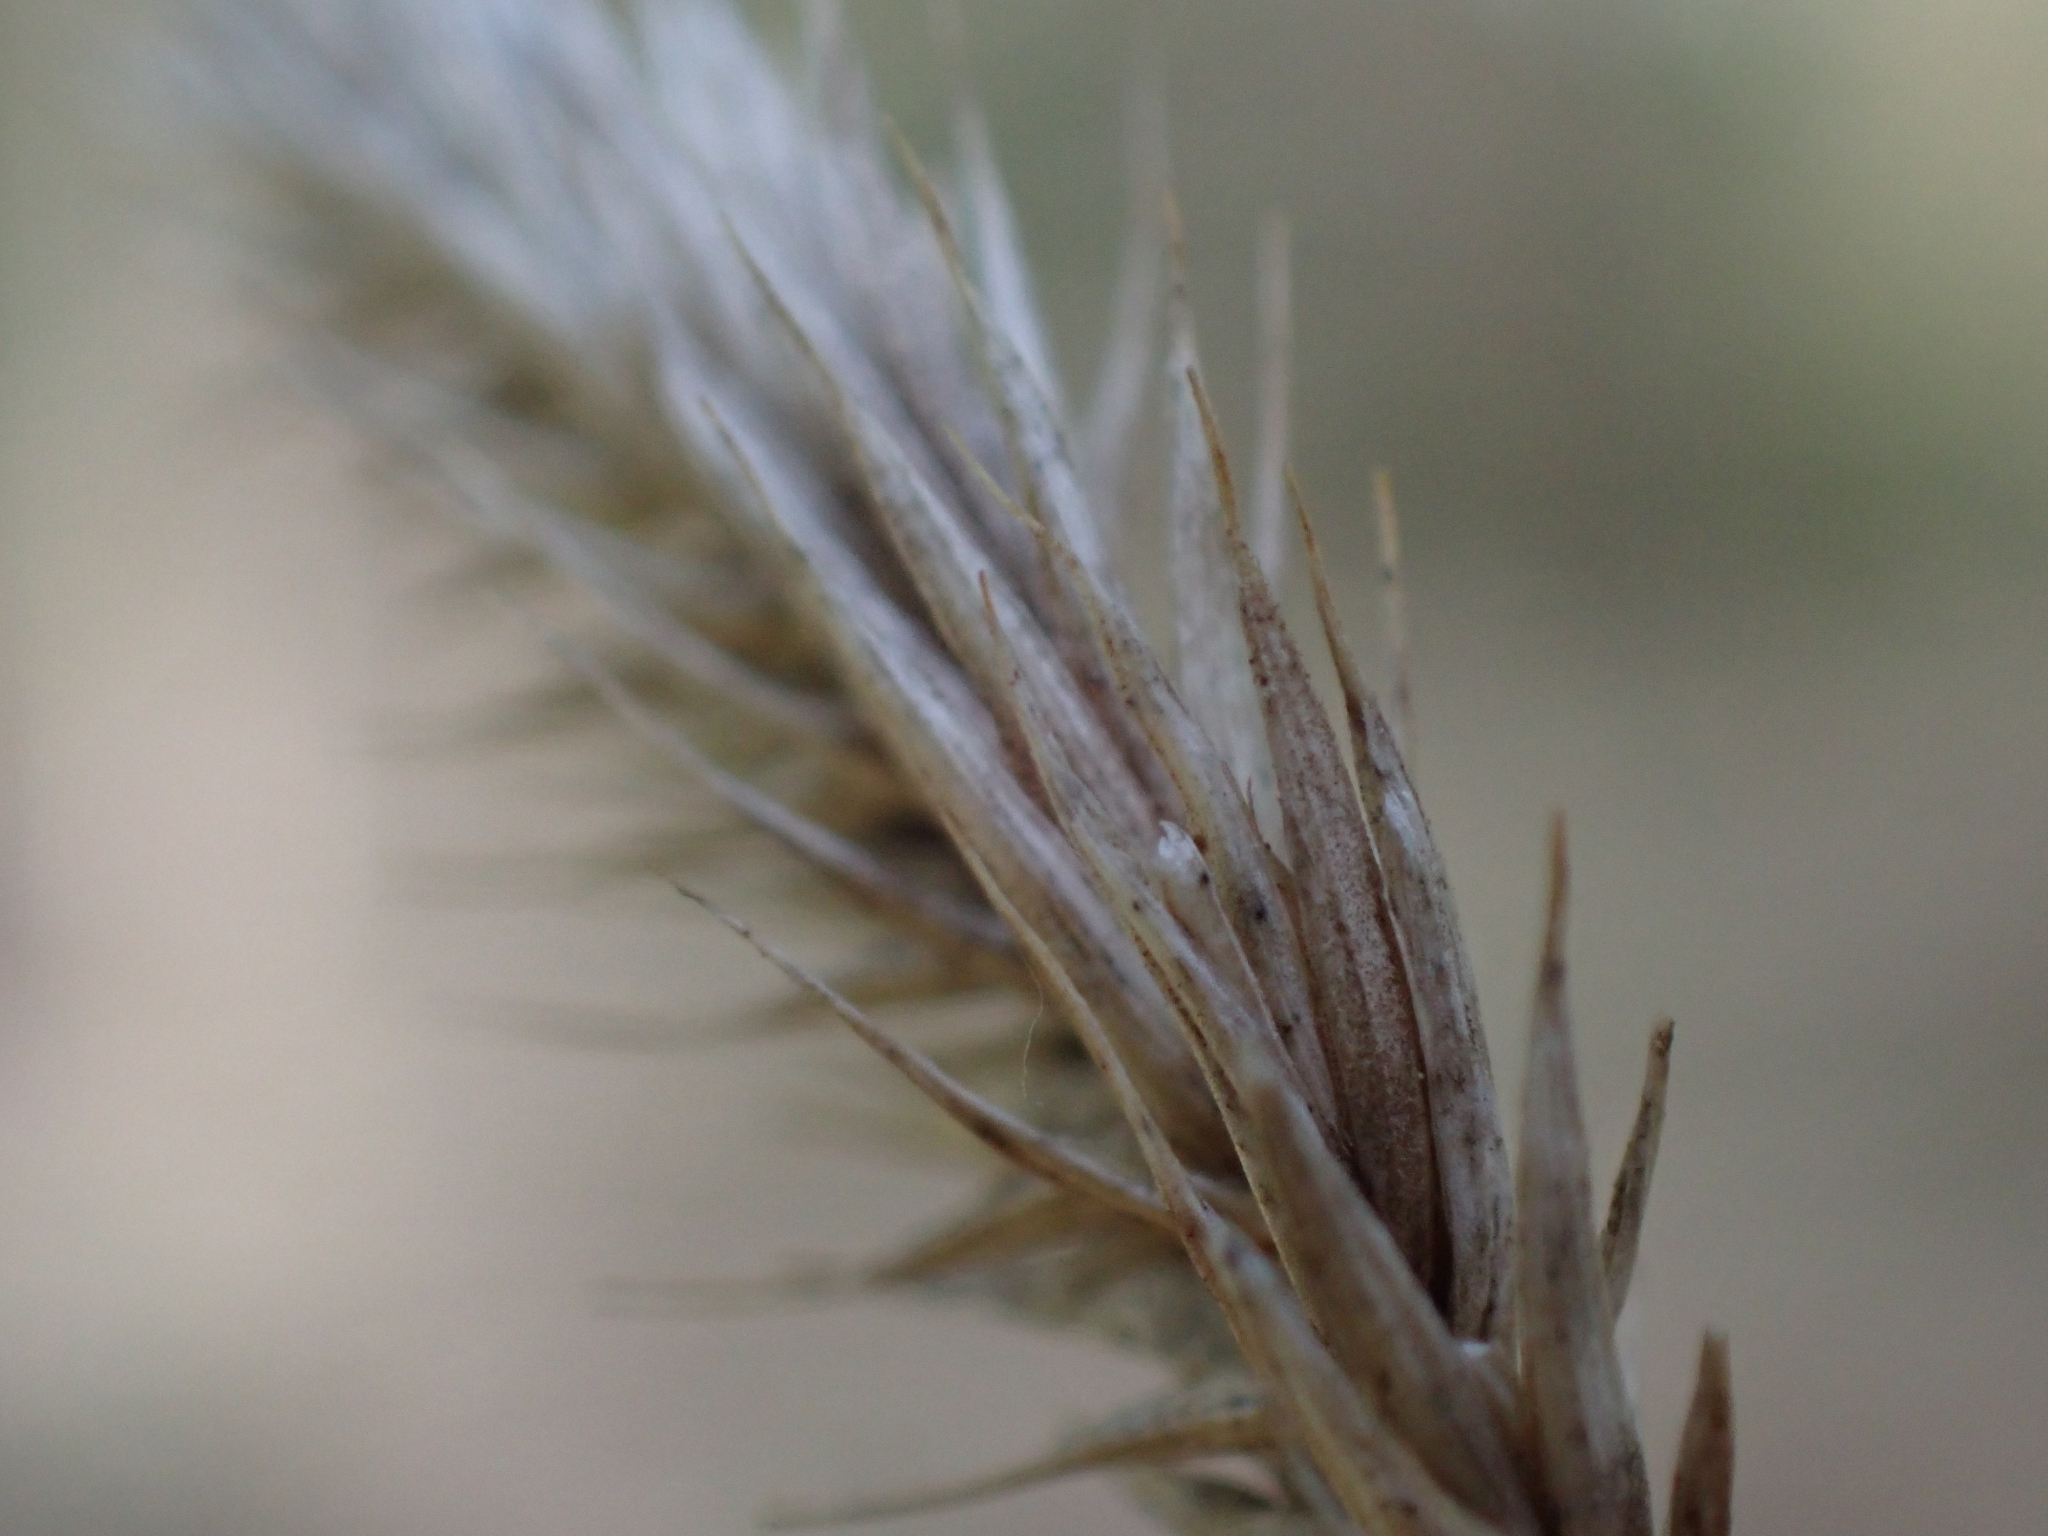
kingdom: Plantae
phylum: Tracheophyta
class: Liliopsida
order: Poales
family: Poaceae
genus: Agropyron
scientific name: Agropyron cristatum
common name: Crested wheatgrass
